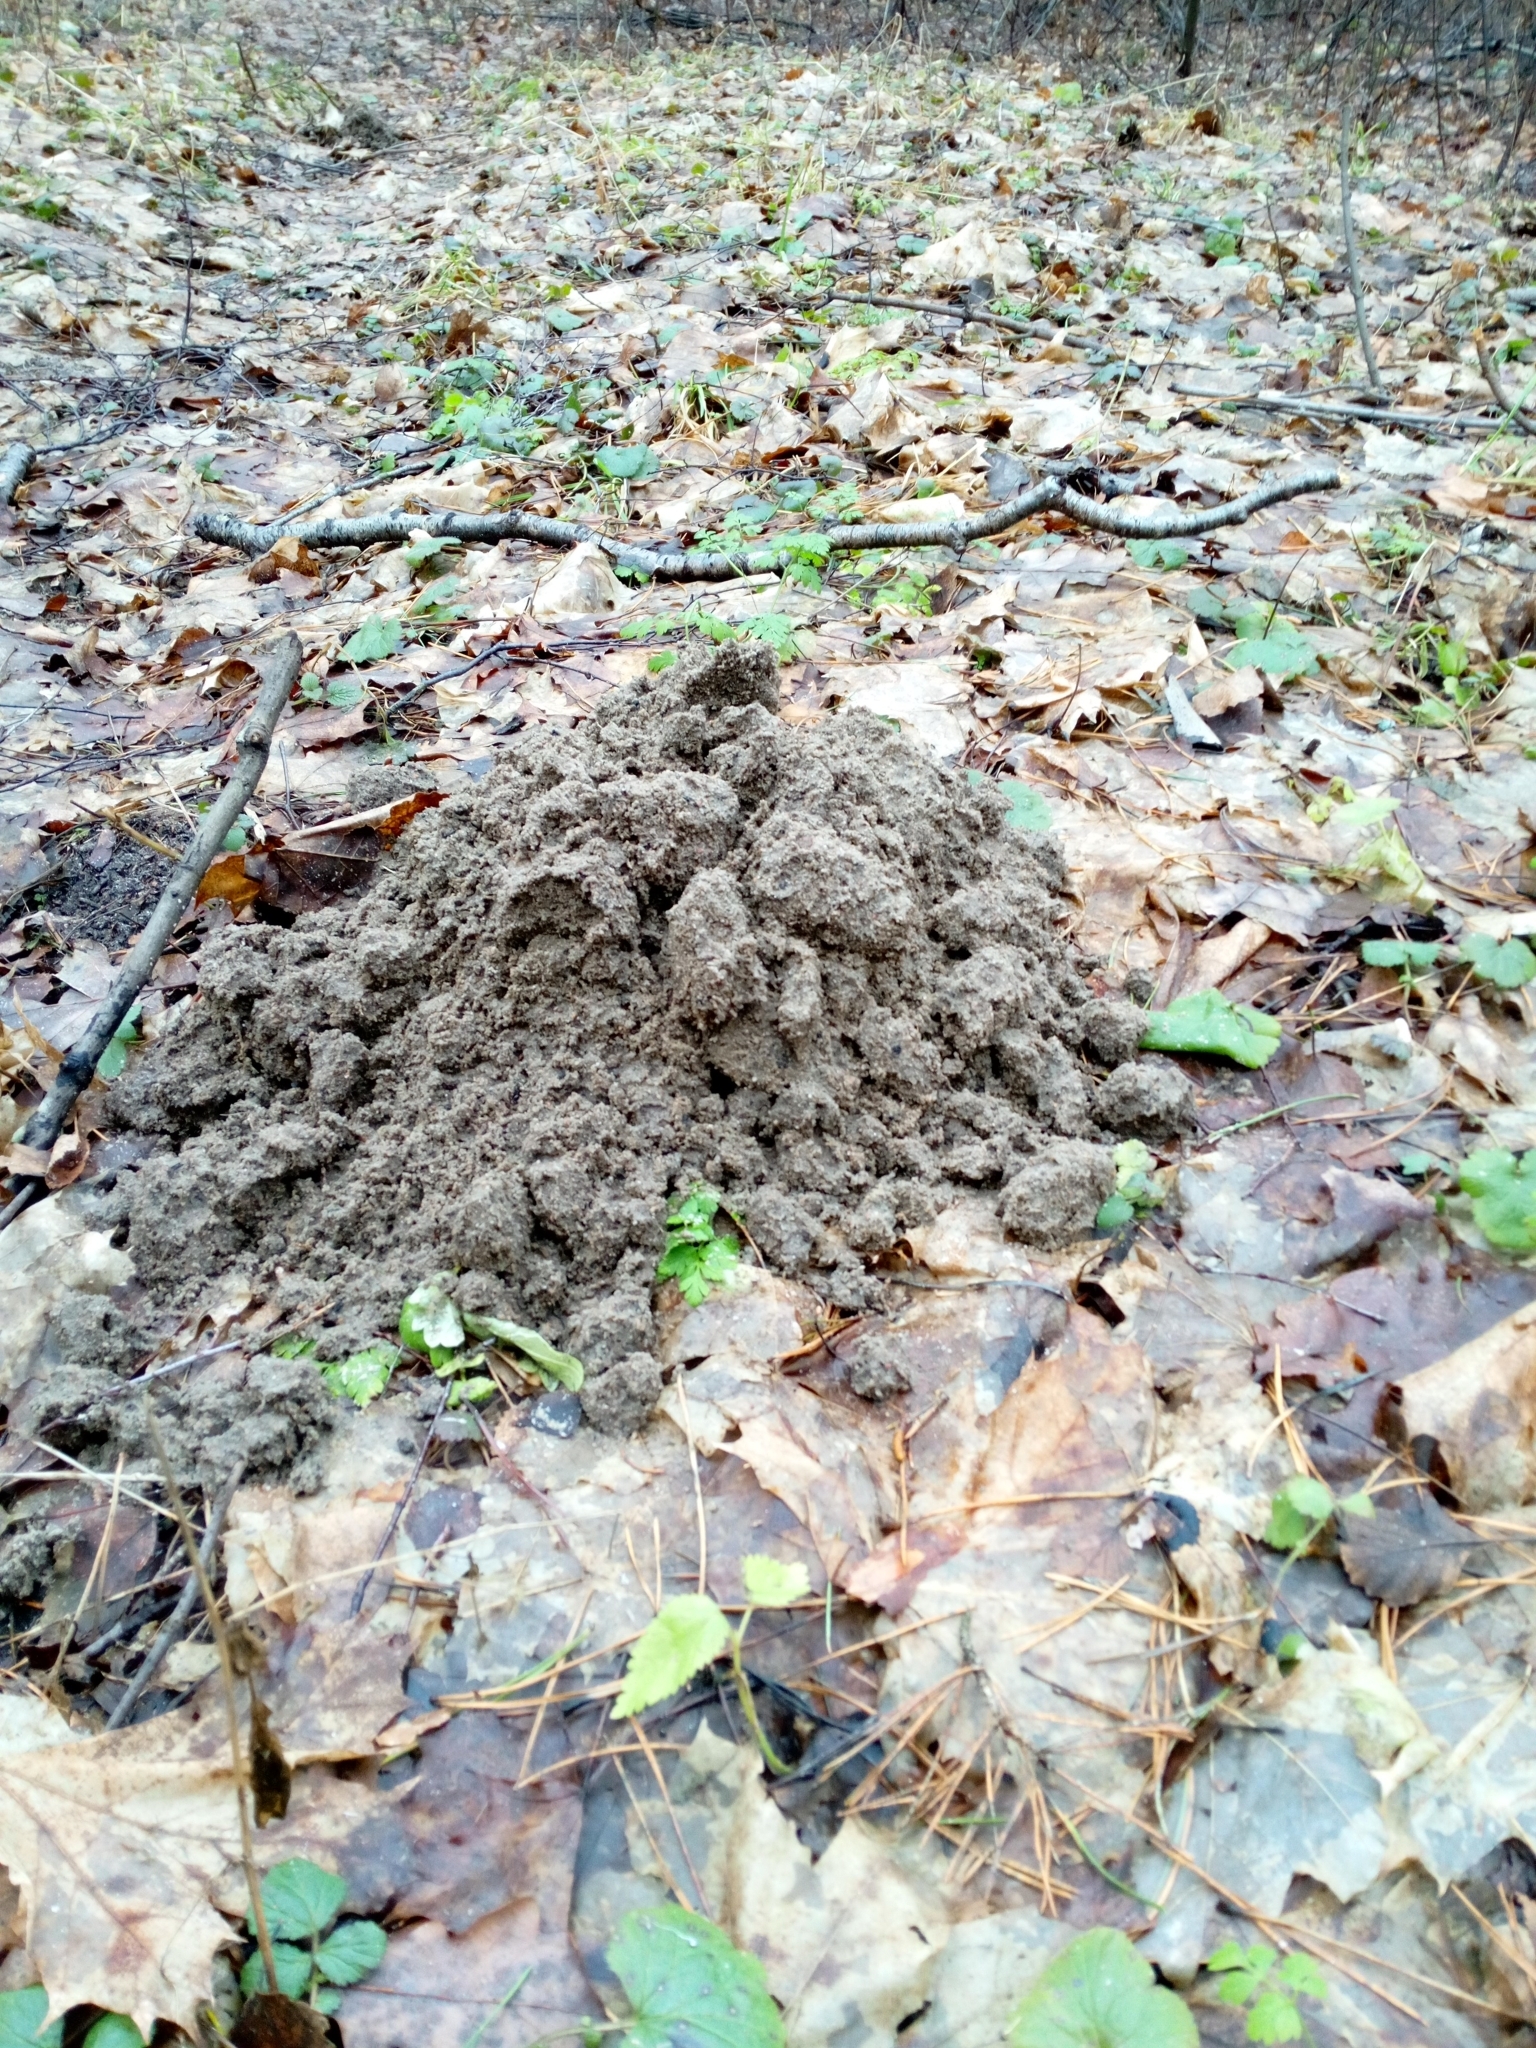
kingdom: Animalia
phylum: Chordata
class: Mammalia
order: Soricomorpha
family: Talpidae
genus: Talpa
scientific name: Talpa europaea
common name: European mole
